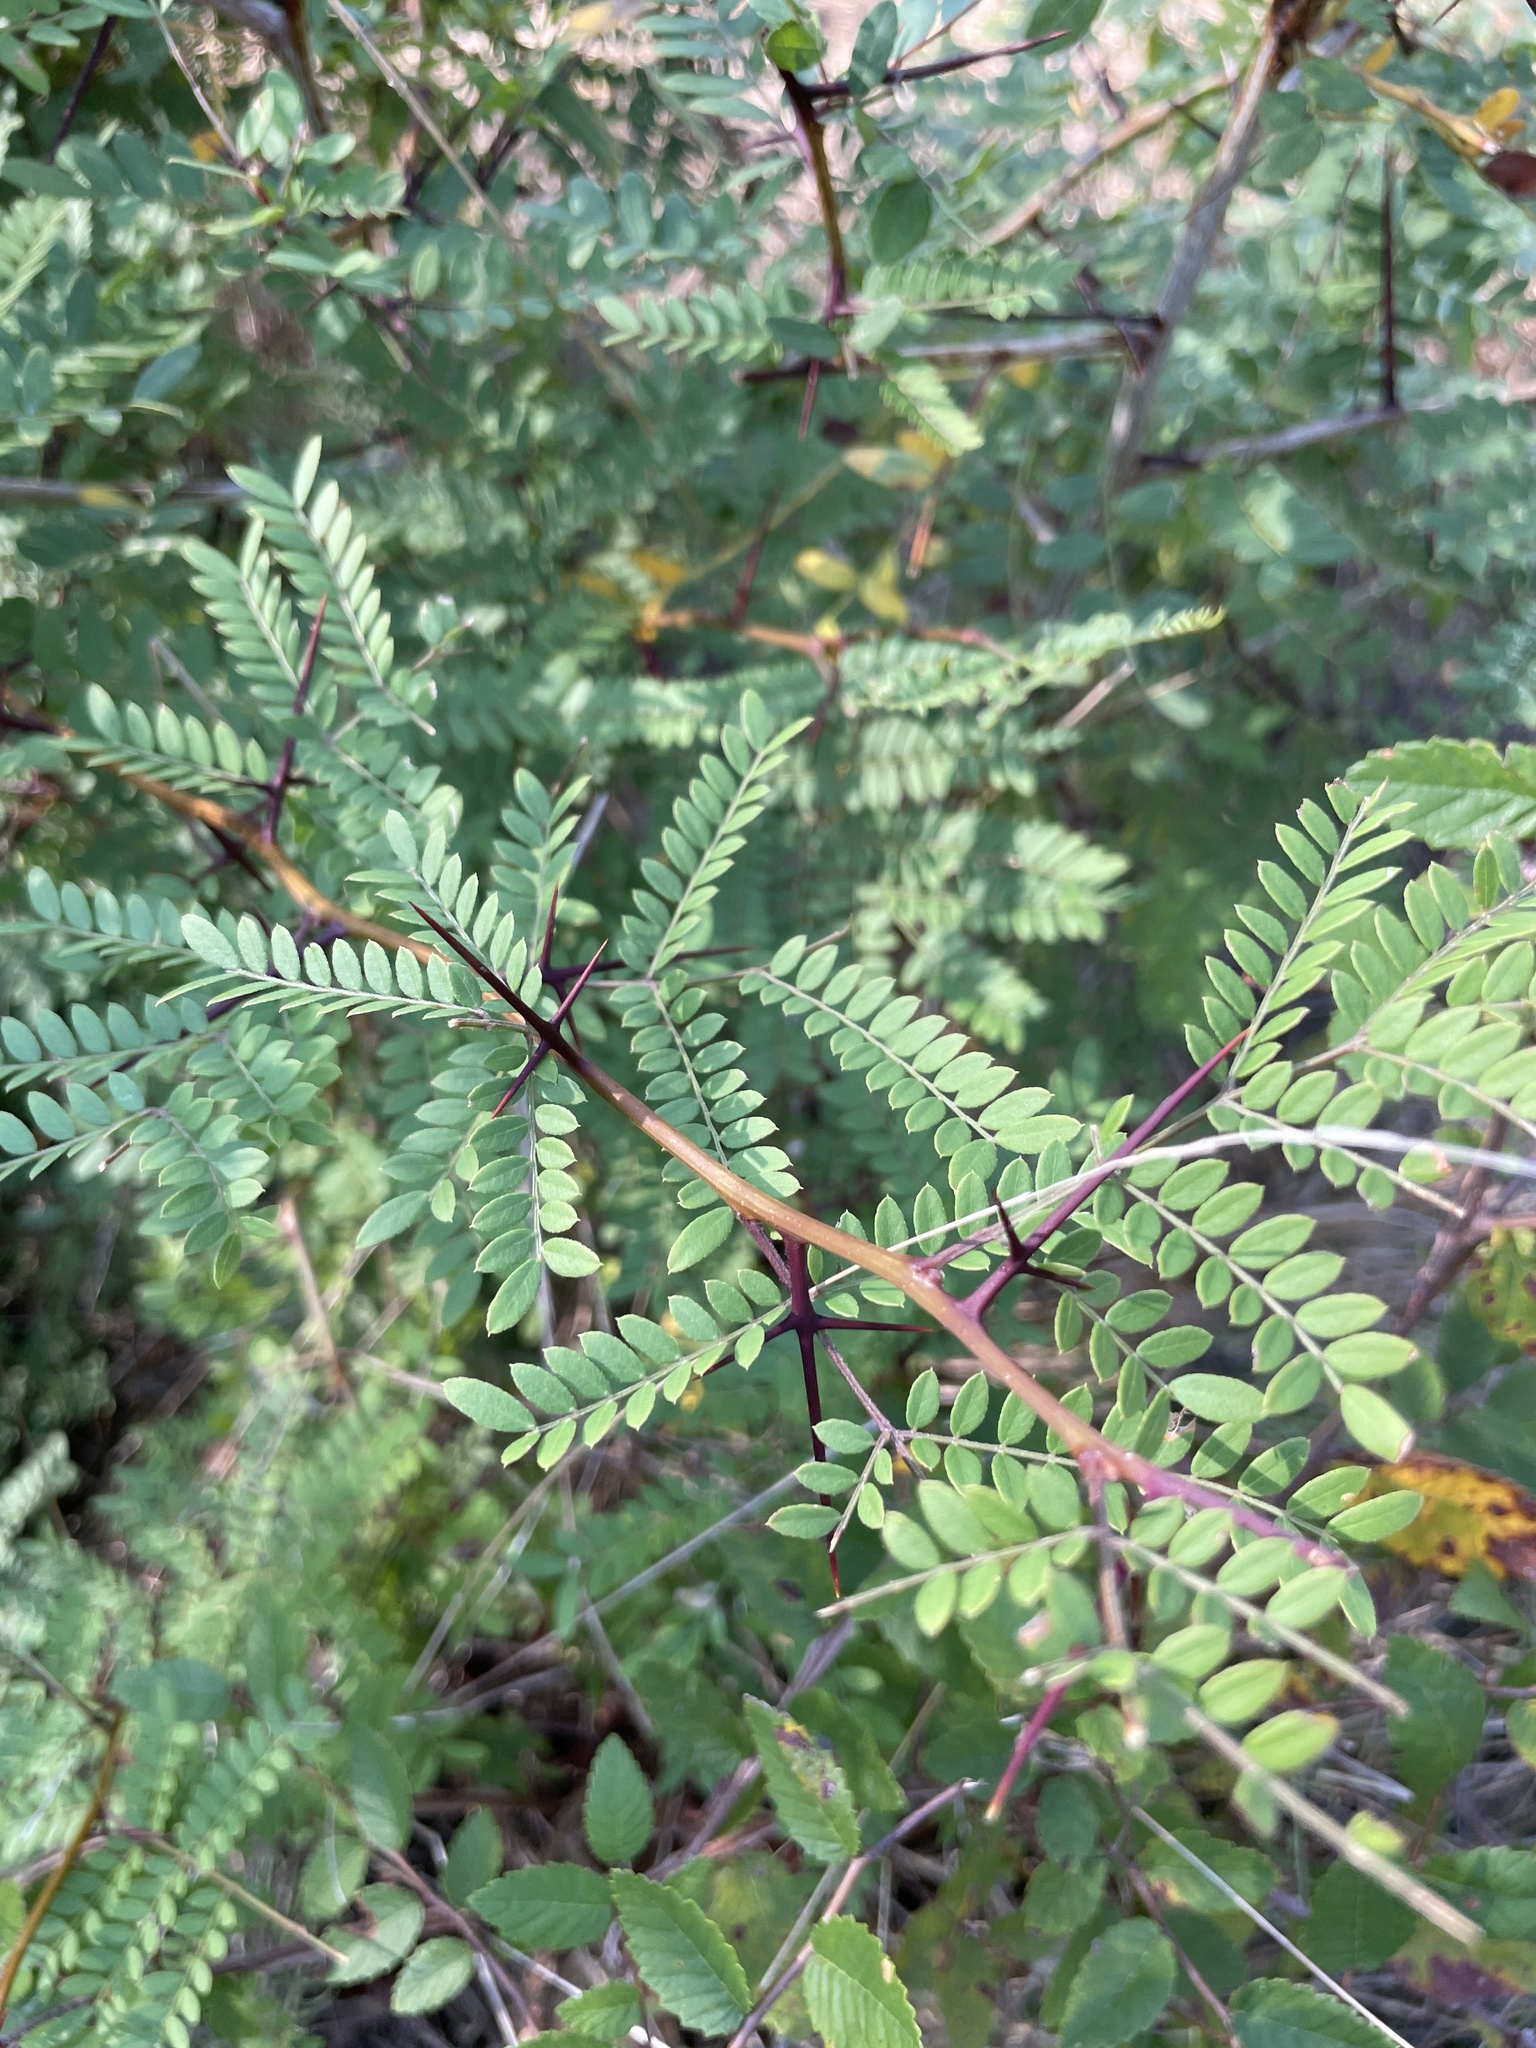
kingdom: Plantae
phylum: Tracheophyta
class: Magnoliopsida
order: Fabales
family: Fabaceae
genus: Gleditsia
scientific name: Gleditsia triacanthos
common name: Common honeylocust
